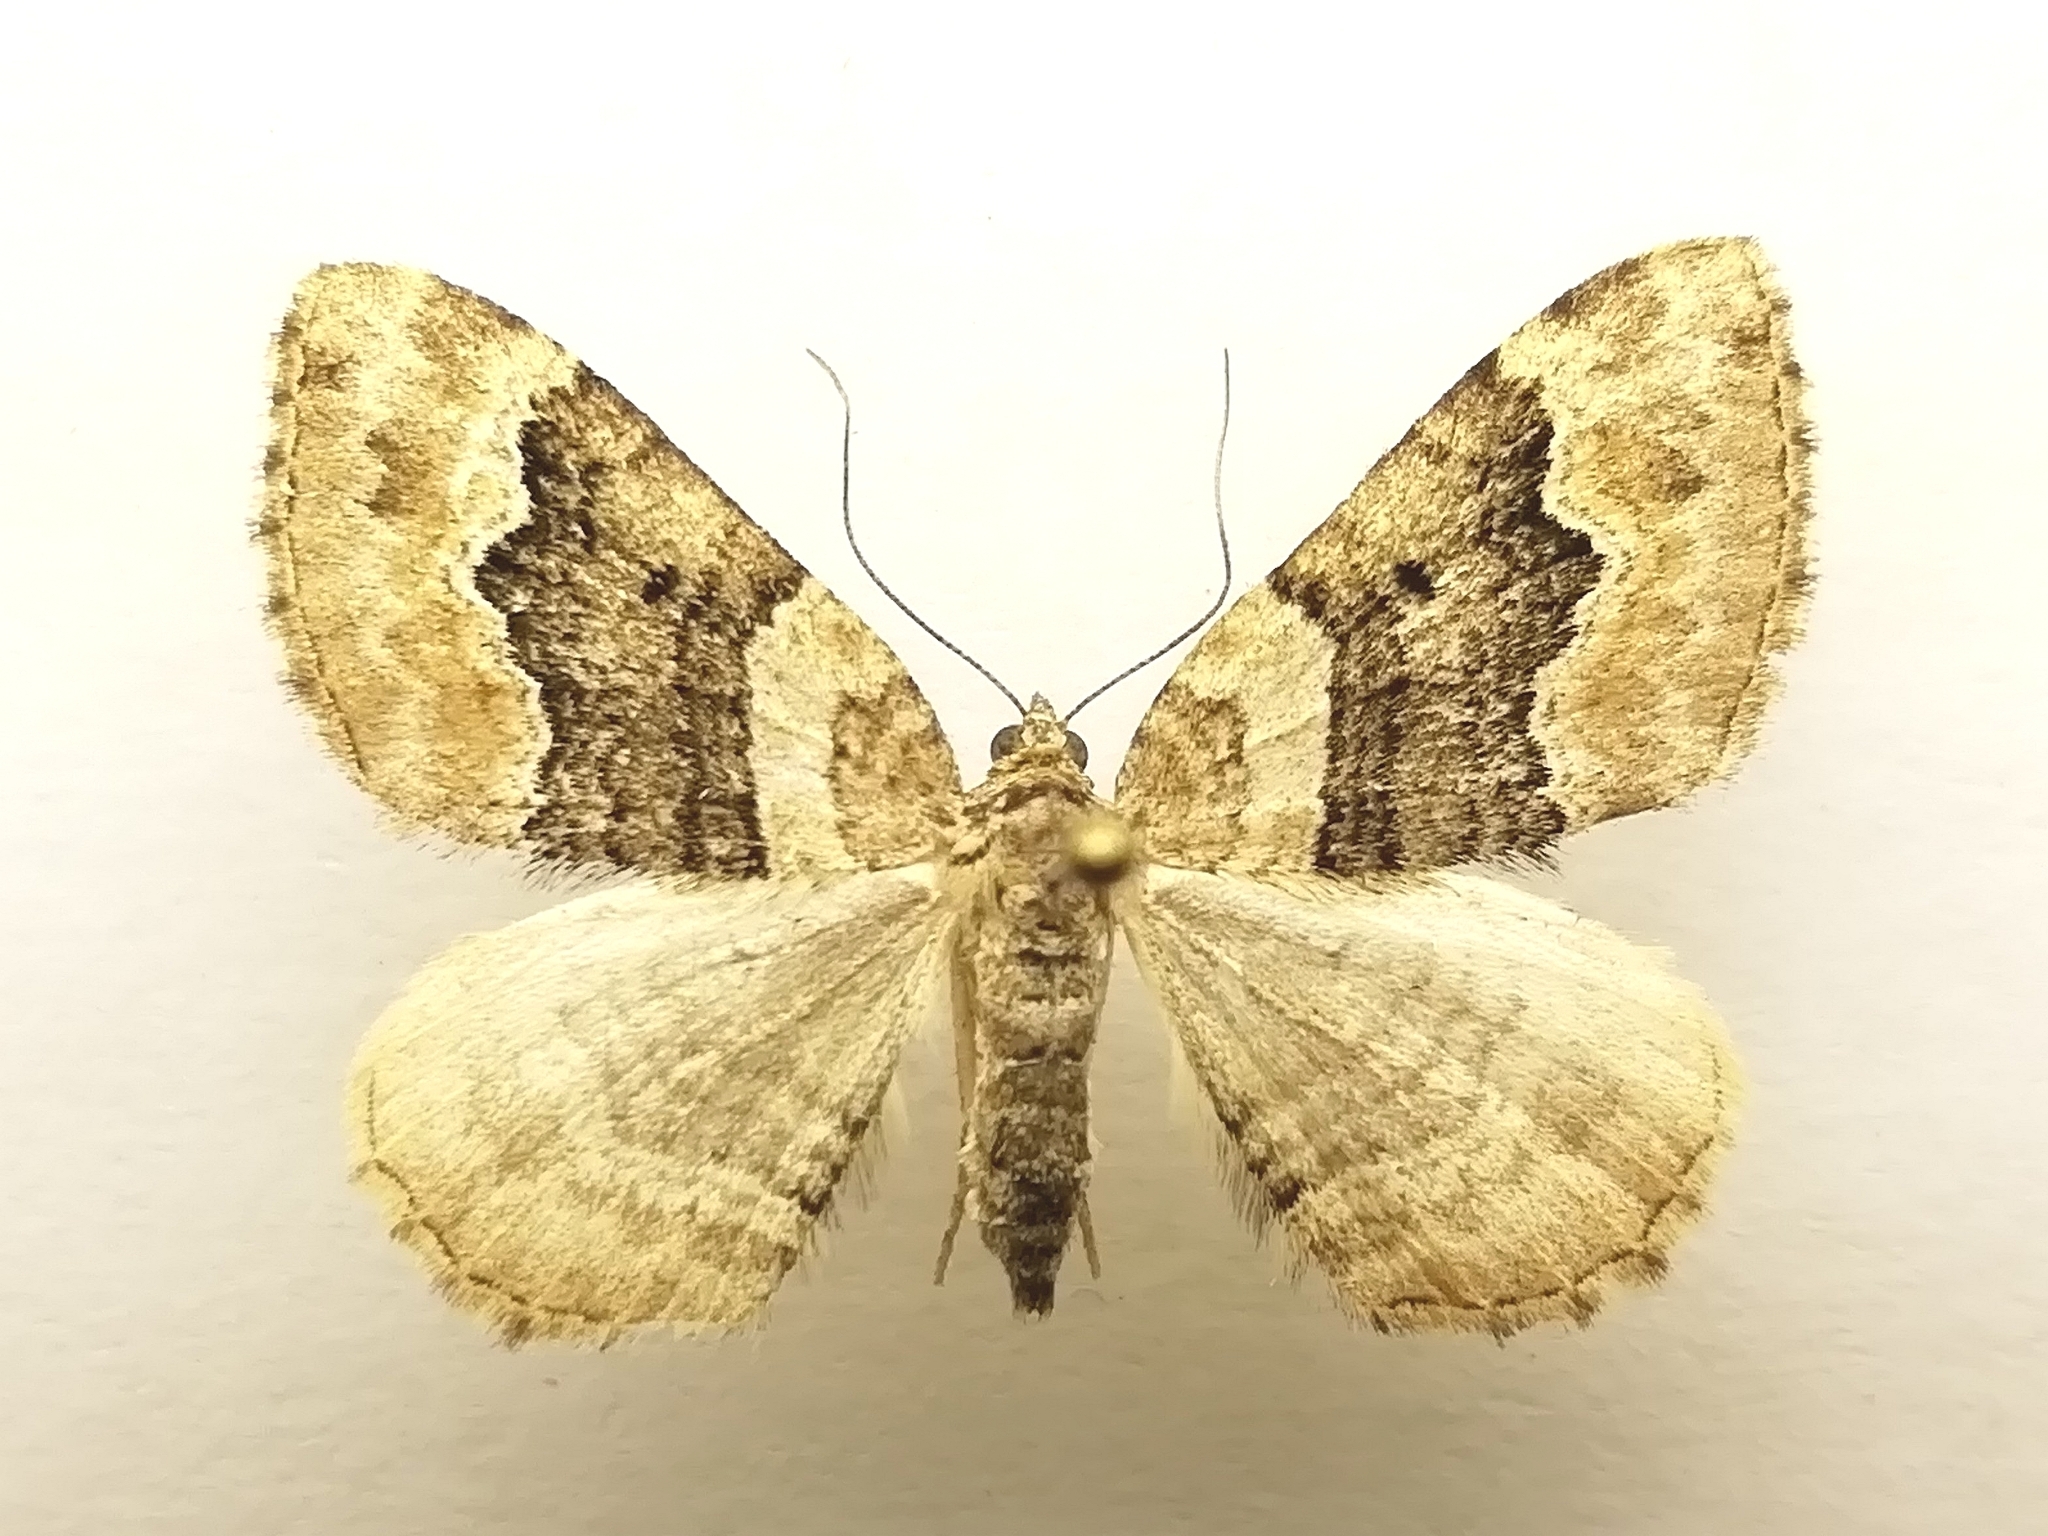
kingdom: Animalia
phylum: Arthropoda
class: Insecta
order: Lepidoptera
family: Geometridae
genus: Xanthorhoe
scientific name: Xanthorhoe quadrifasiata
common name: Large twin-spot carpet
